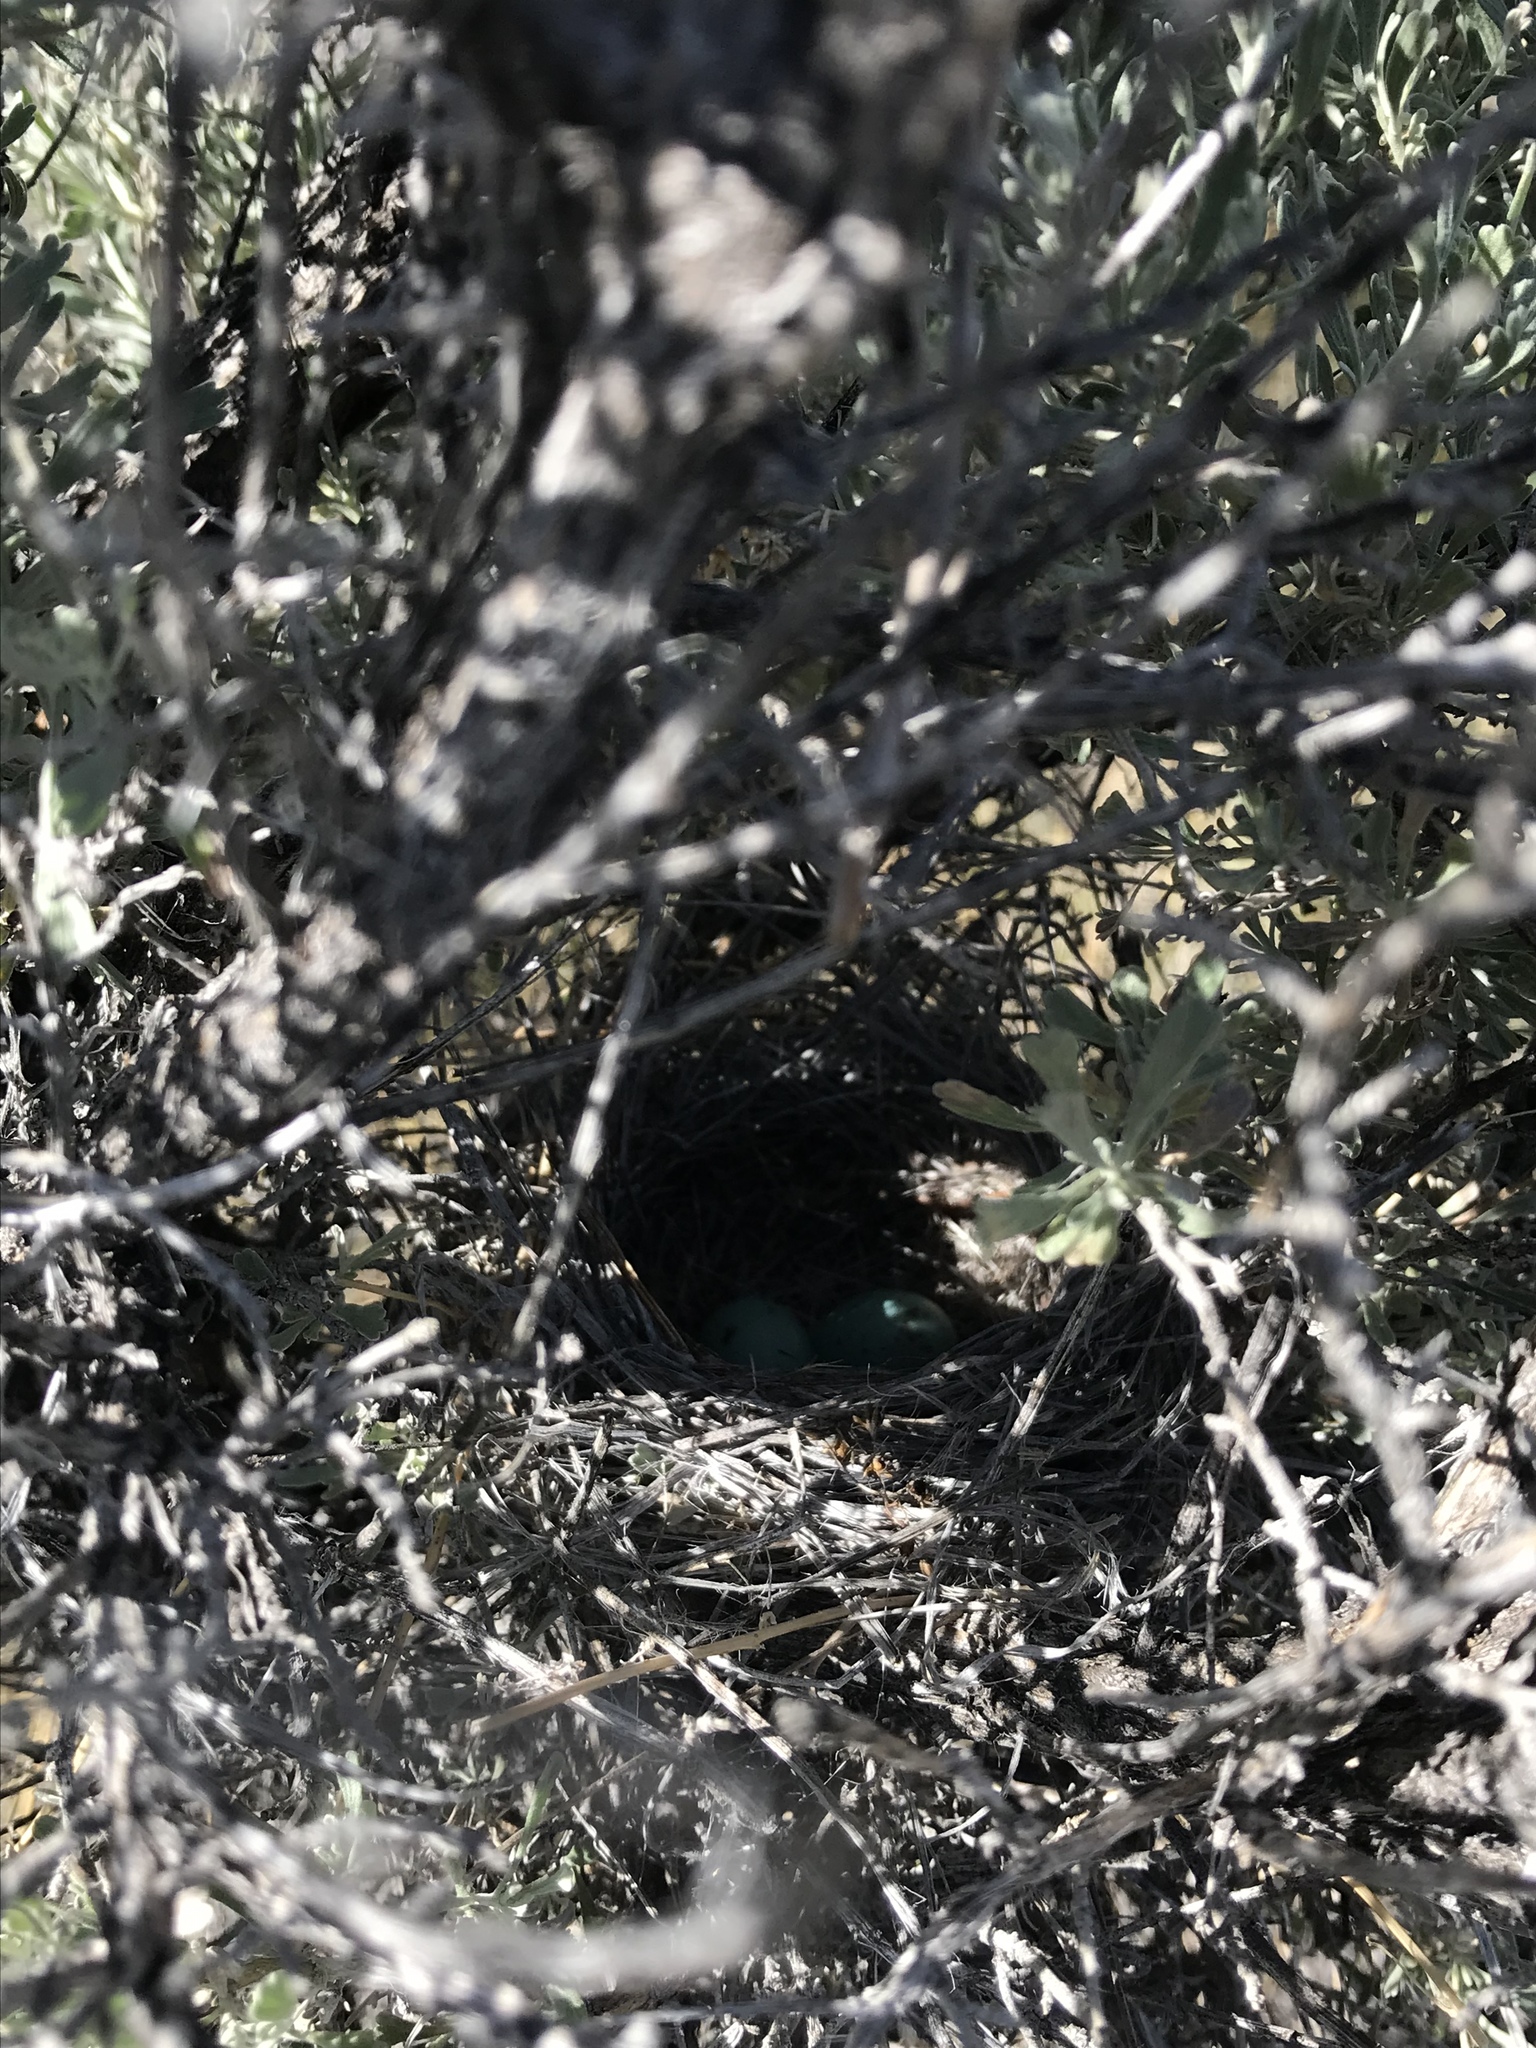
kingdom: Animalia
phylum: Chordata
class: Aves
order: Passeriformes
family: Passerellidae
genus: Spizella
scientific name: Spizella breweri
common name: Brewer's sparrow
